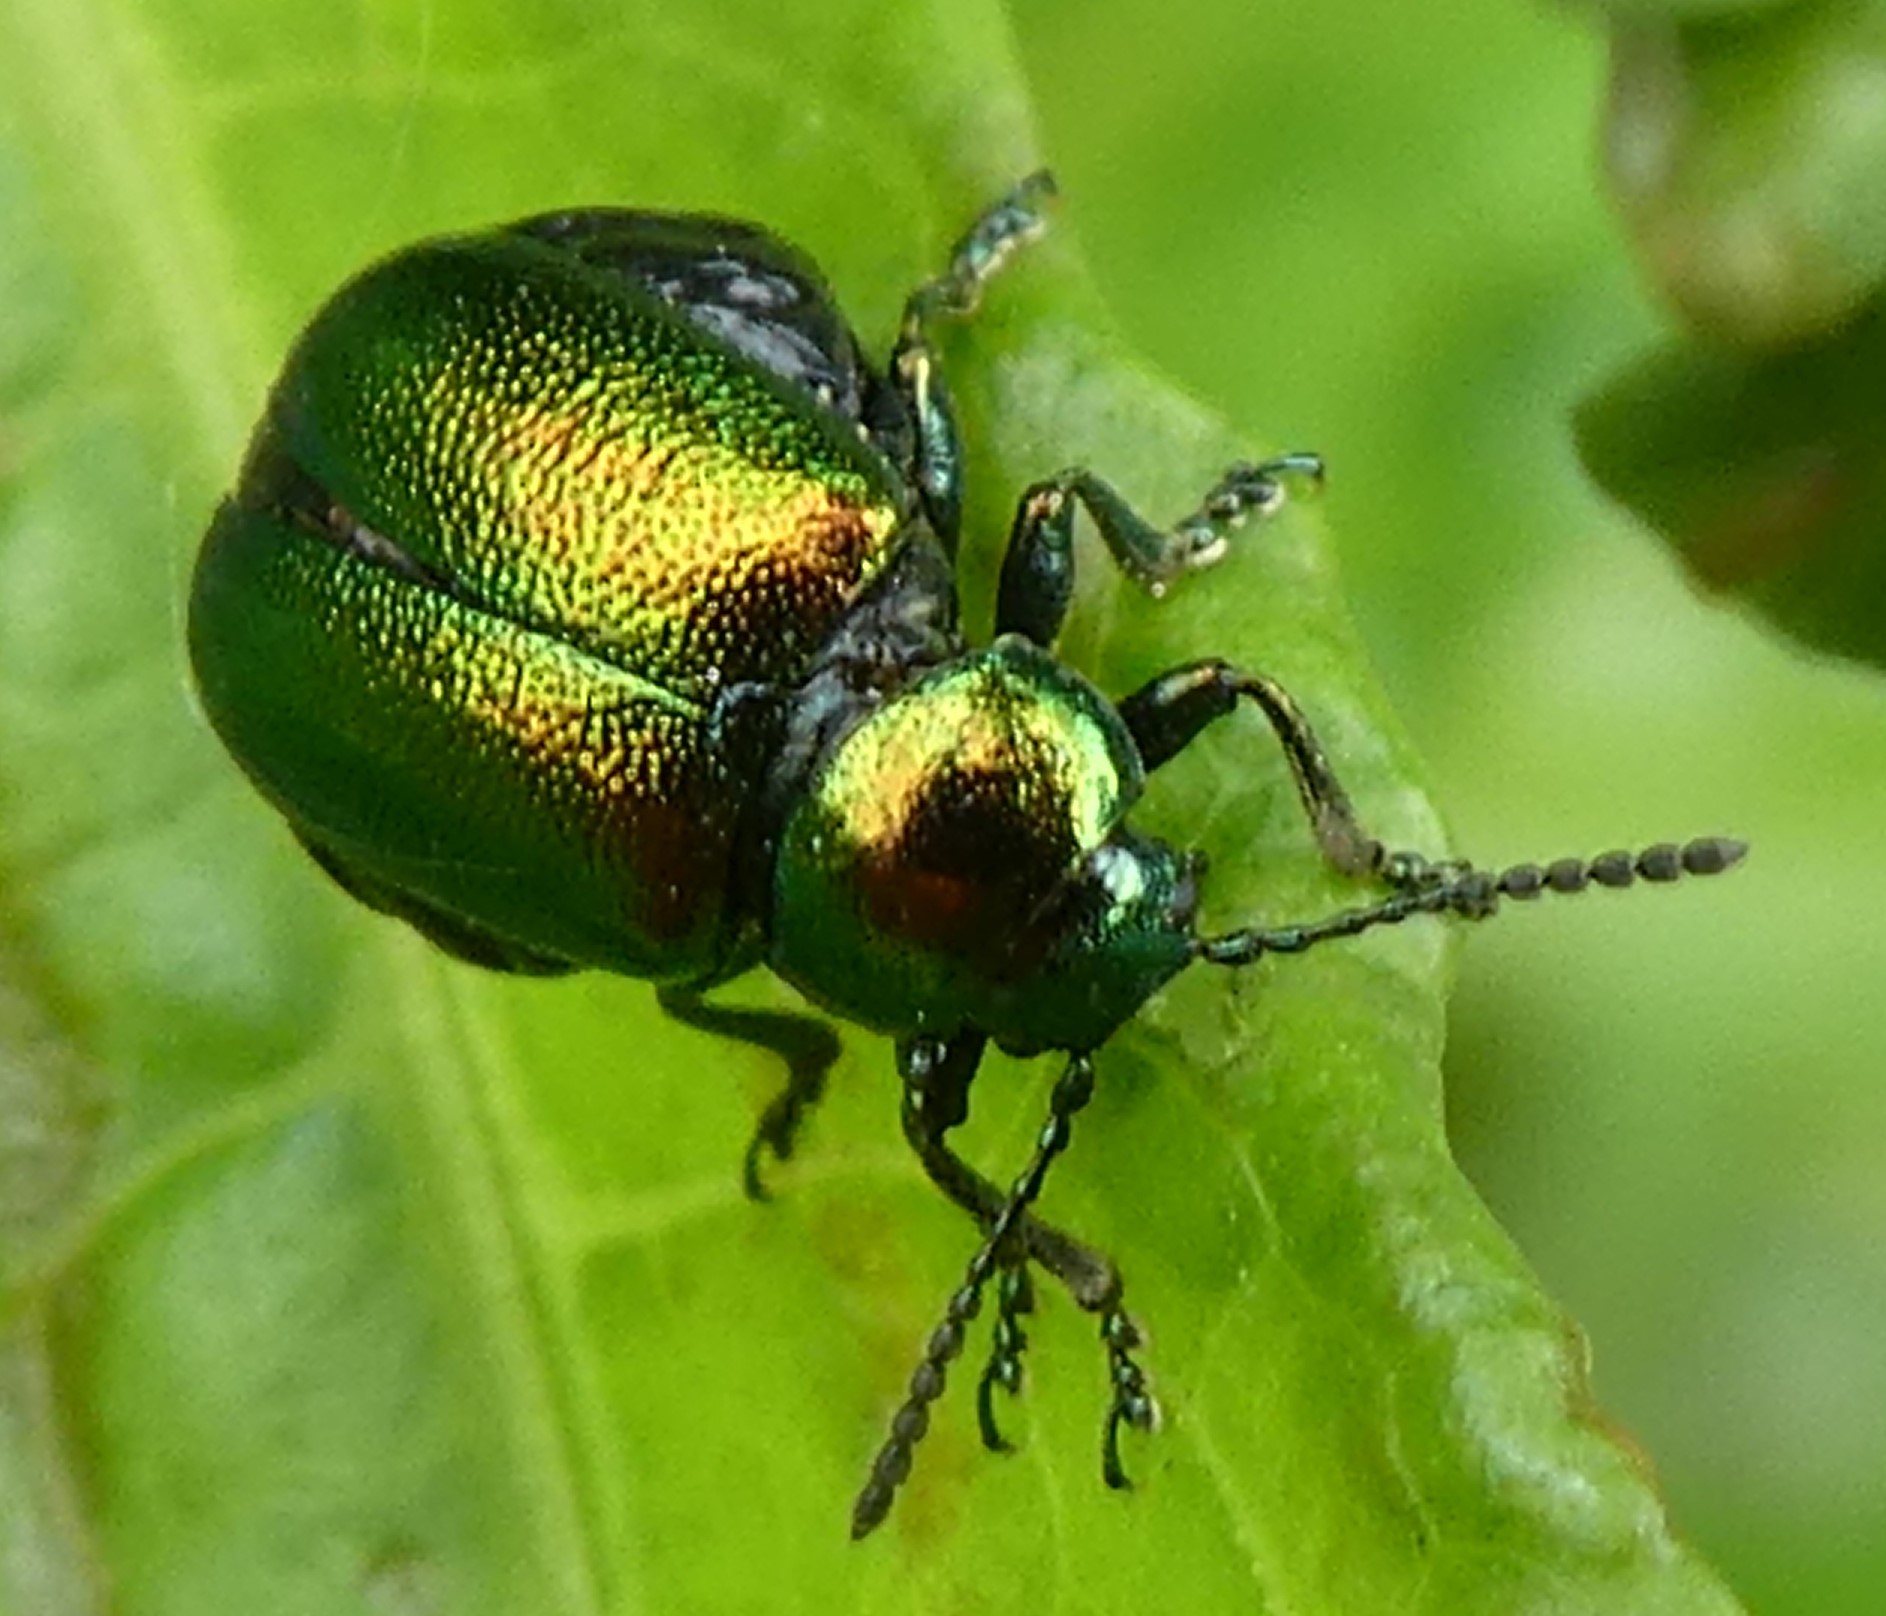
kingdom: Animalia
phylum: Arthropoda
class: Insecta
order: Coleoptera
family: Chrysomelidae
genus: Gastrophysa
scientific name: Gastrophysa viridula
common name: Green dock beetle
